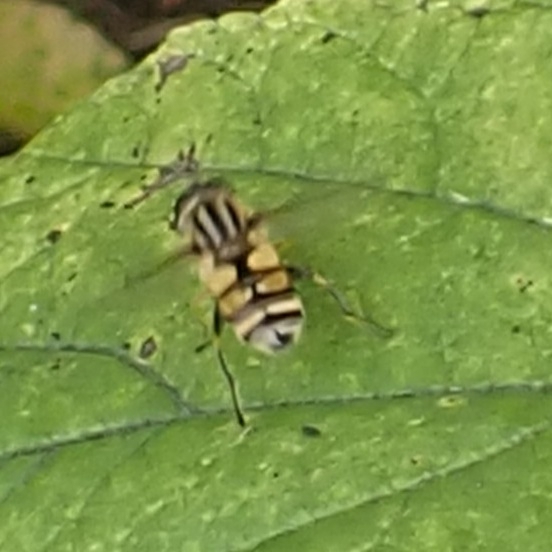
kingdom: Animalia
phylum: Arthropoda
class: Insecta
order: Diptera
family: Syrphidae
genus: Helophilus
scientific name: Helophilus pendulus
